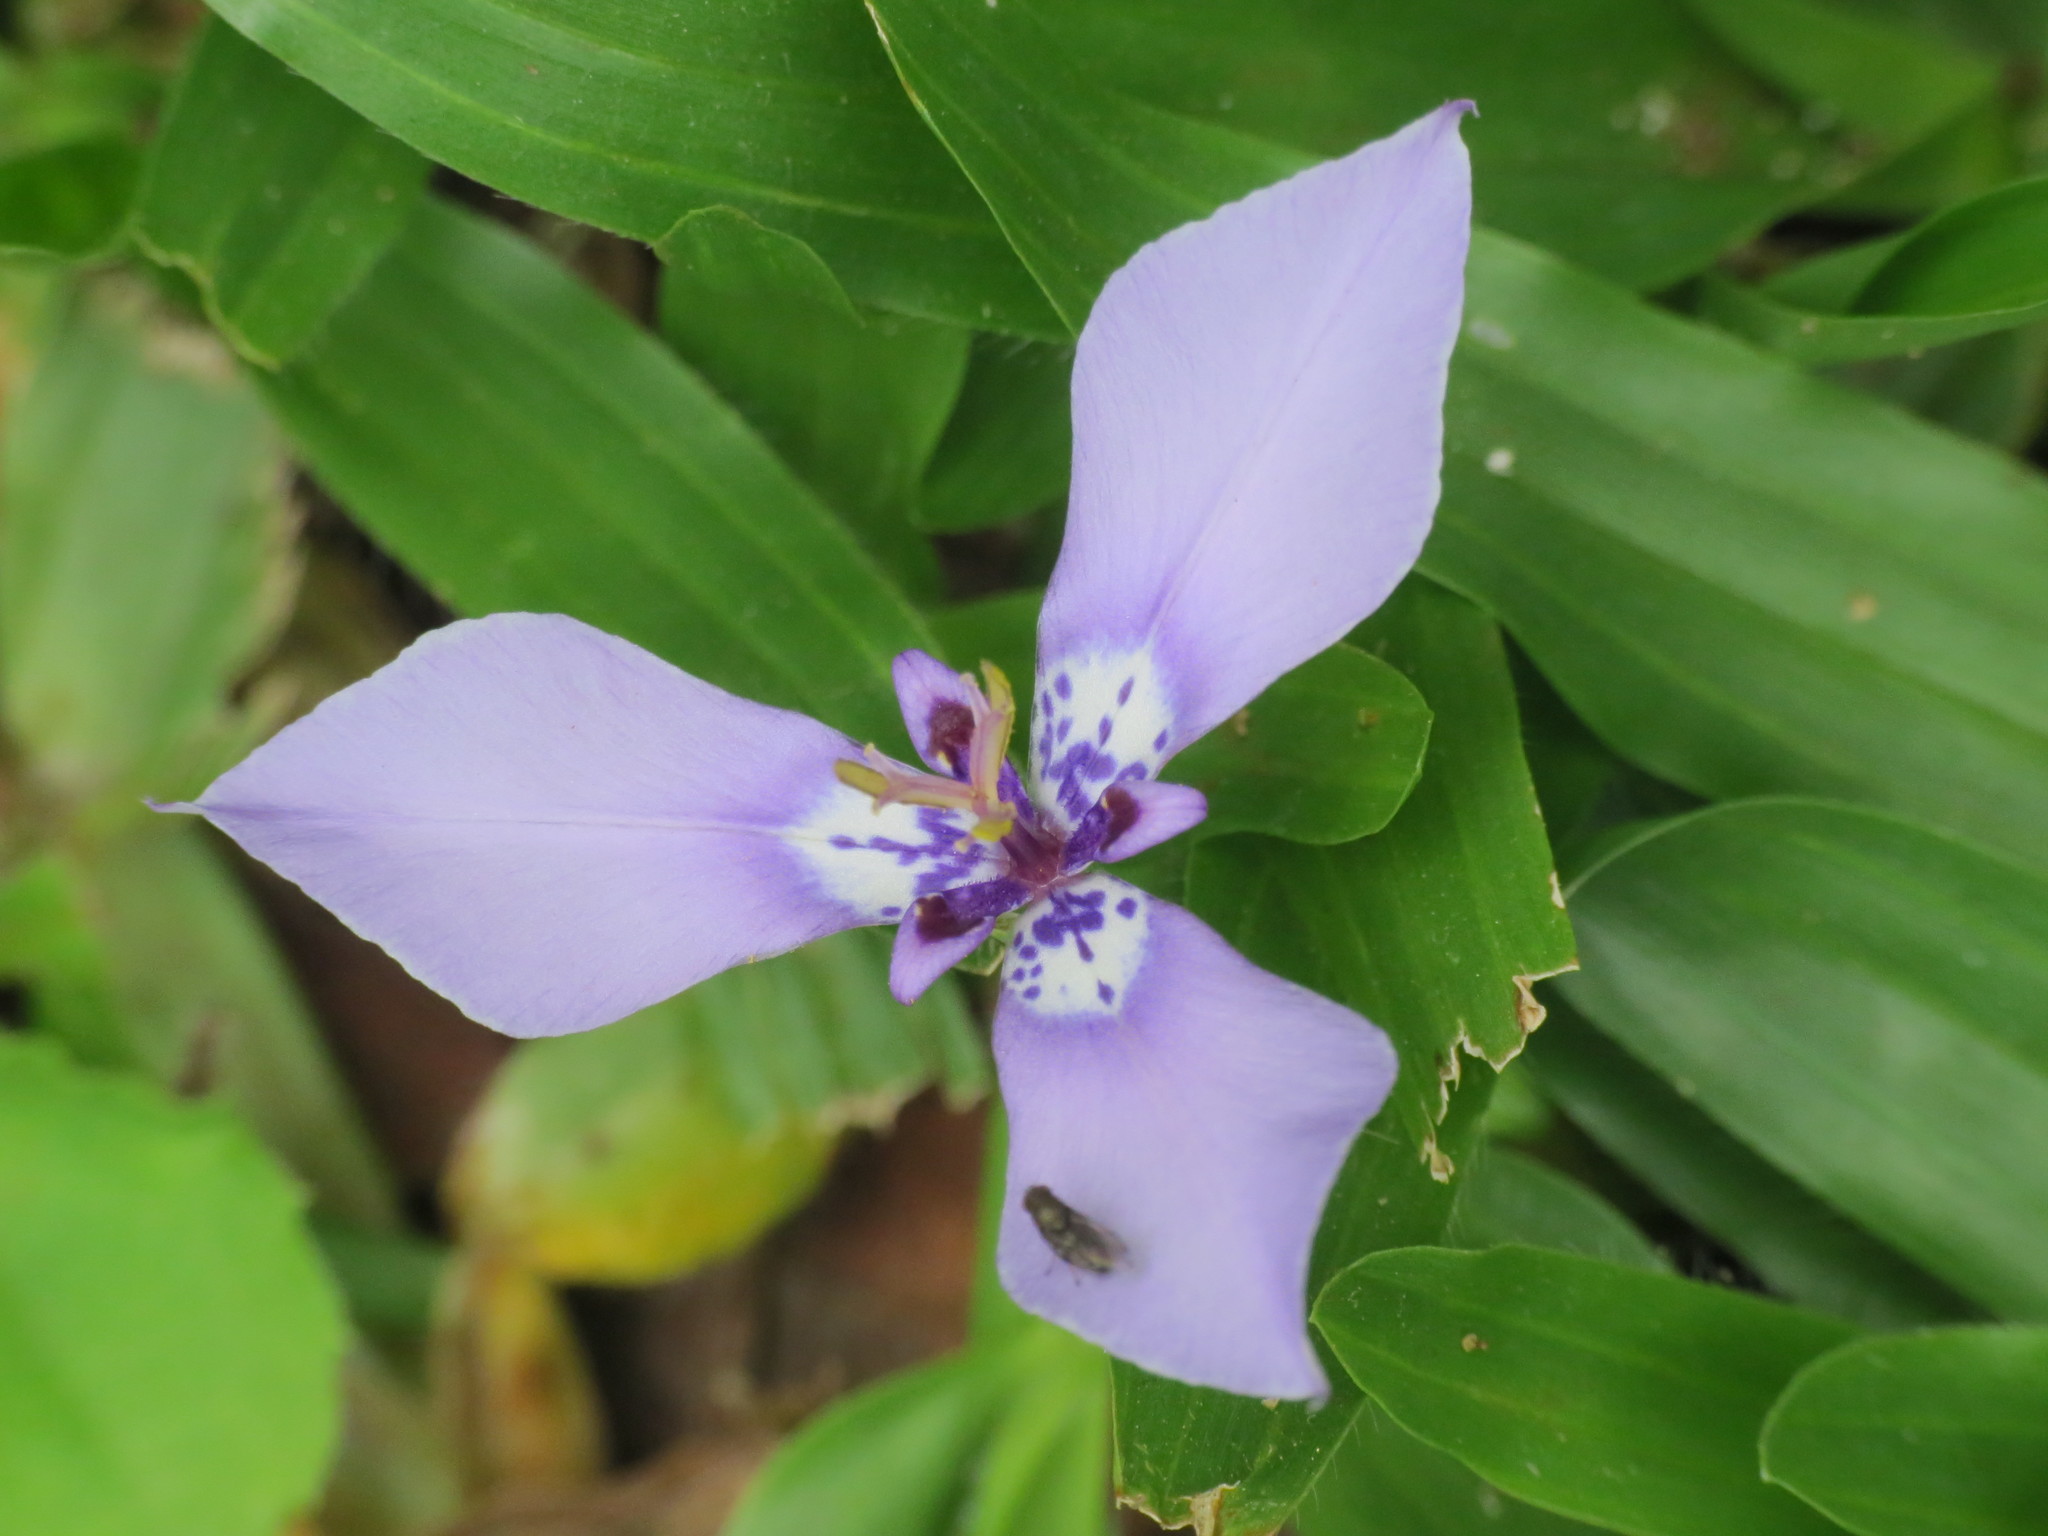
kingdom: Plantae
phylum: Tracheophyta
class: Liliopsida
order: Asparagales
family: Iridaceae
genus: Herbertia
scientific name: Herbertia lahue
